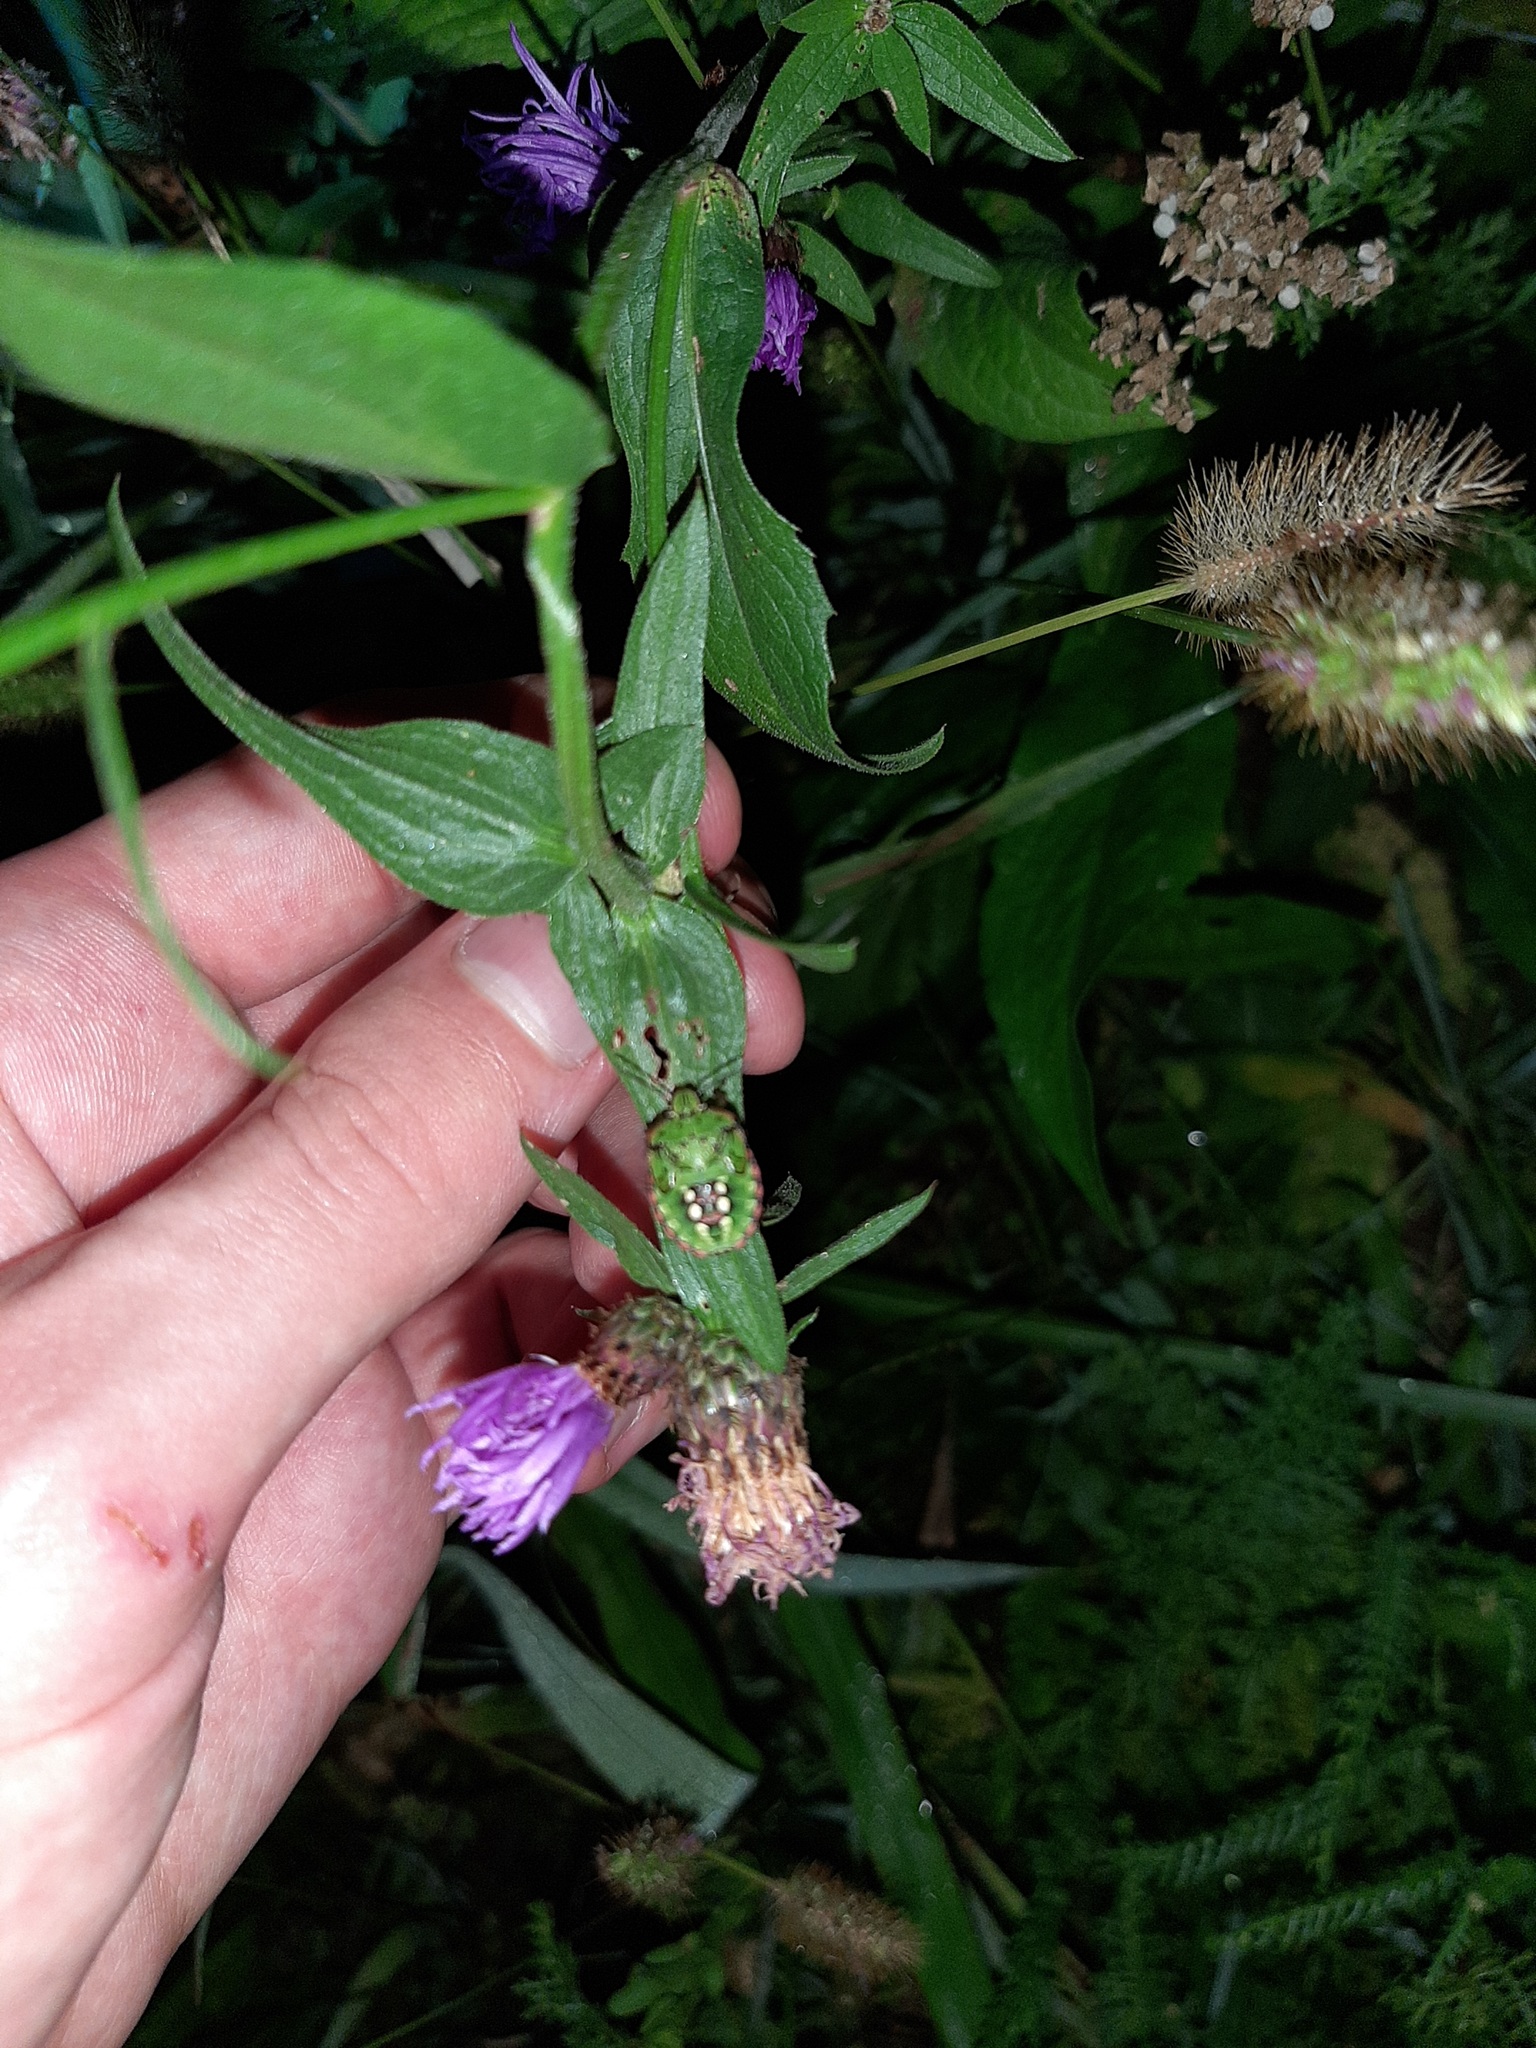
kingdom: Animalia
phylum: Arthropoda
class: Insecta
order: Hemiptera
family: Pentatomidae
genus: Nezara
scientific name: Nezara viridula
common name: Southern green stink bug
